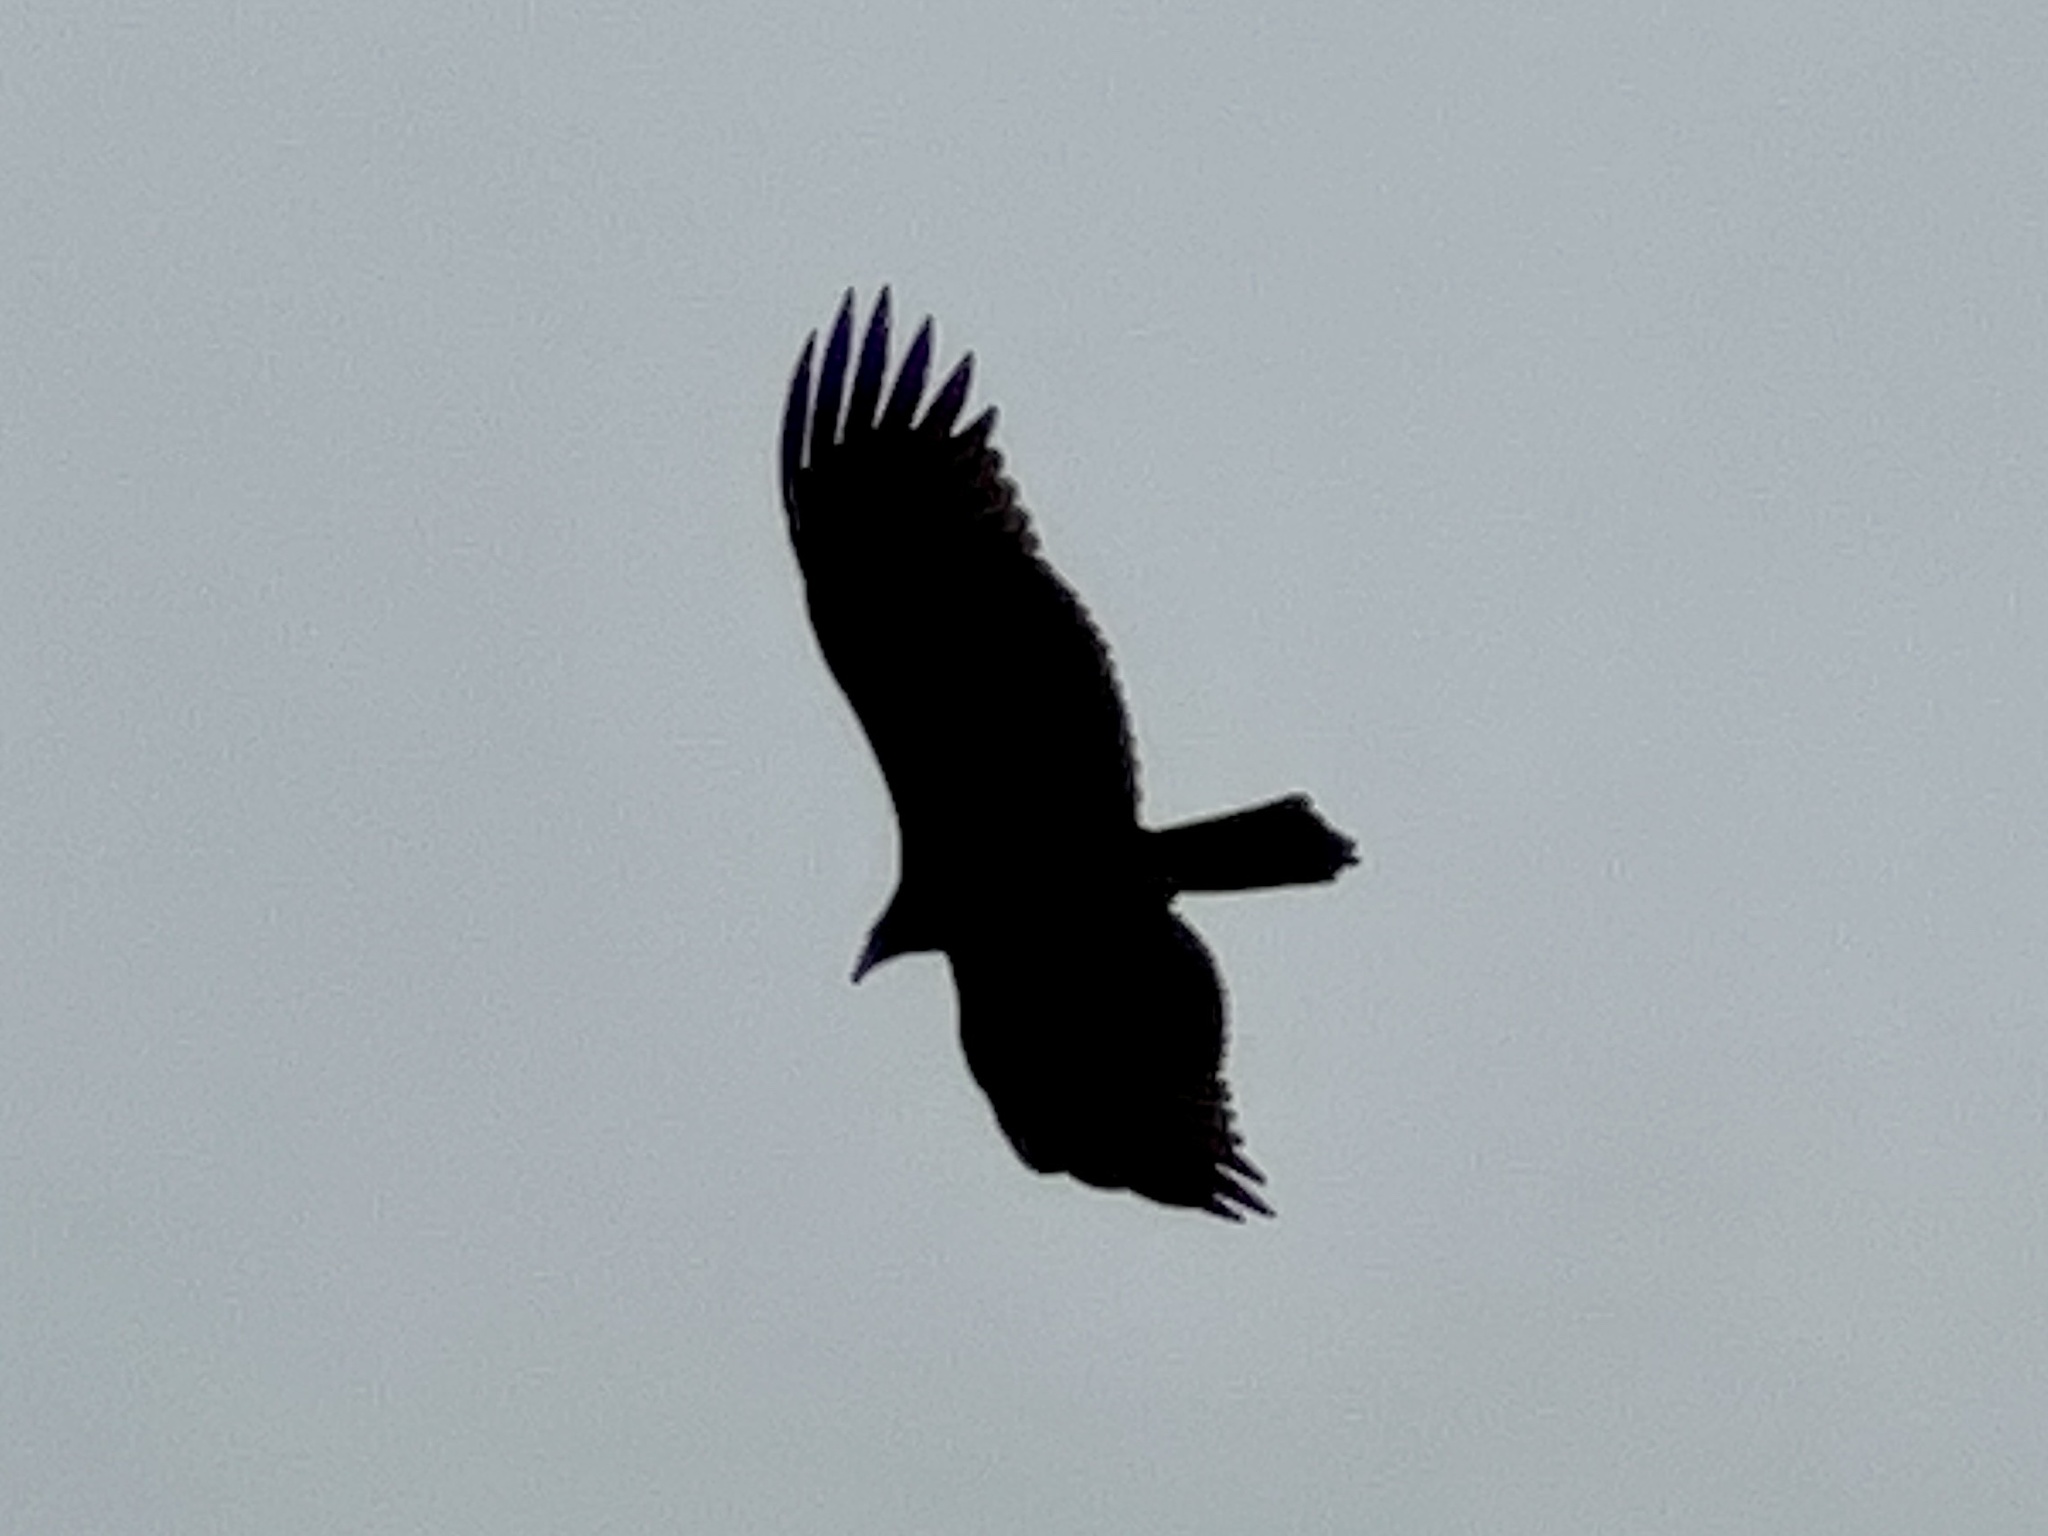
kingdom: Animalia
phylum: Chordata
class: Aves
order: Accipitriformes
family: Cathartidae
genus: Cathartes
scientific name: Cathartes aura
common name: Turkey vulture
